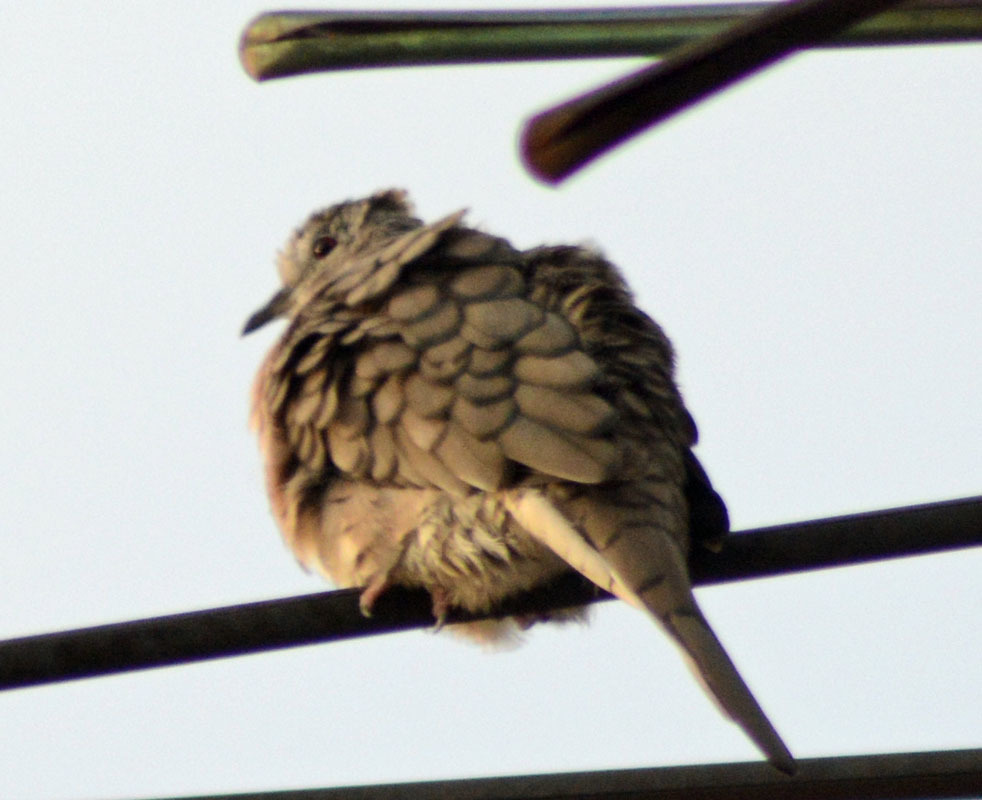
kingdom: Animalia
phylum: Chordata
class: Aves
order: Columbiformes
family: Columbidae
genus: Columbina
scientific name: Columbina inca
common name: Inca dove
